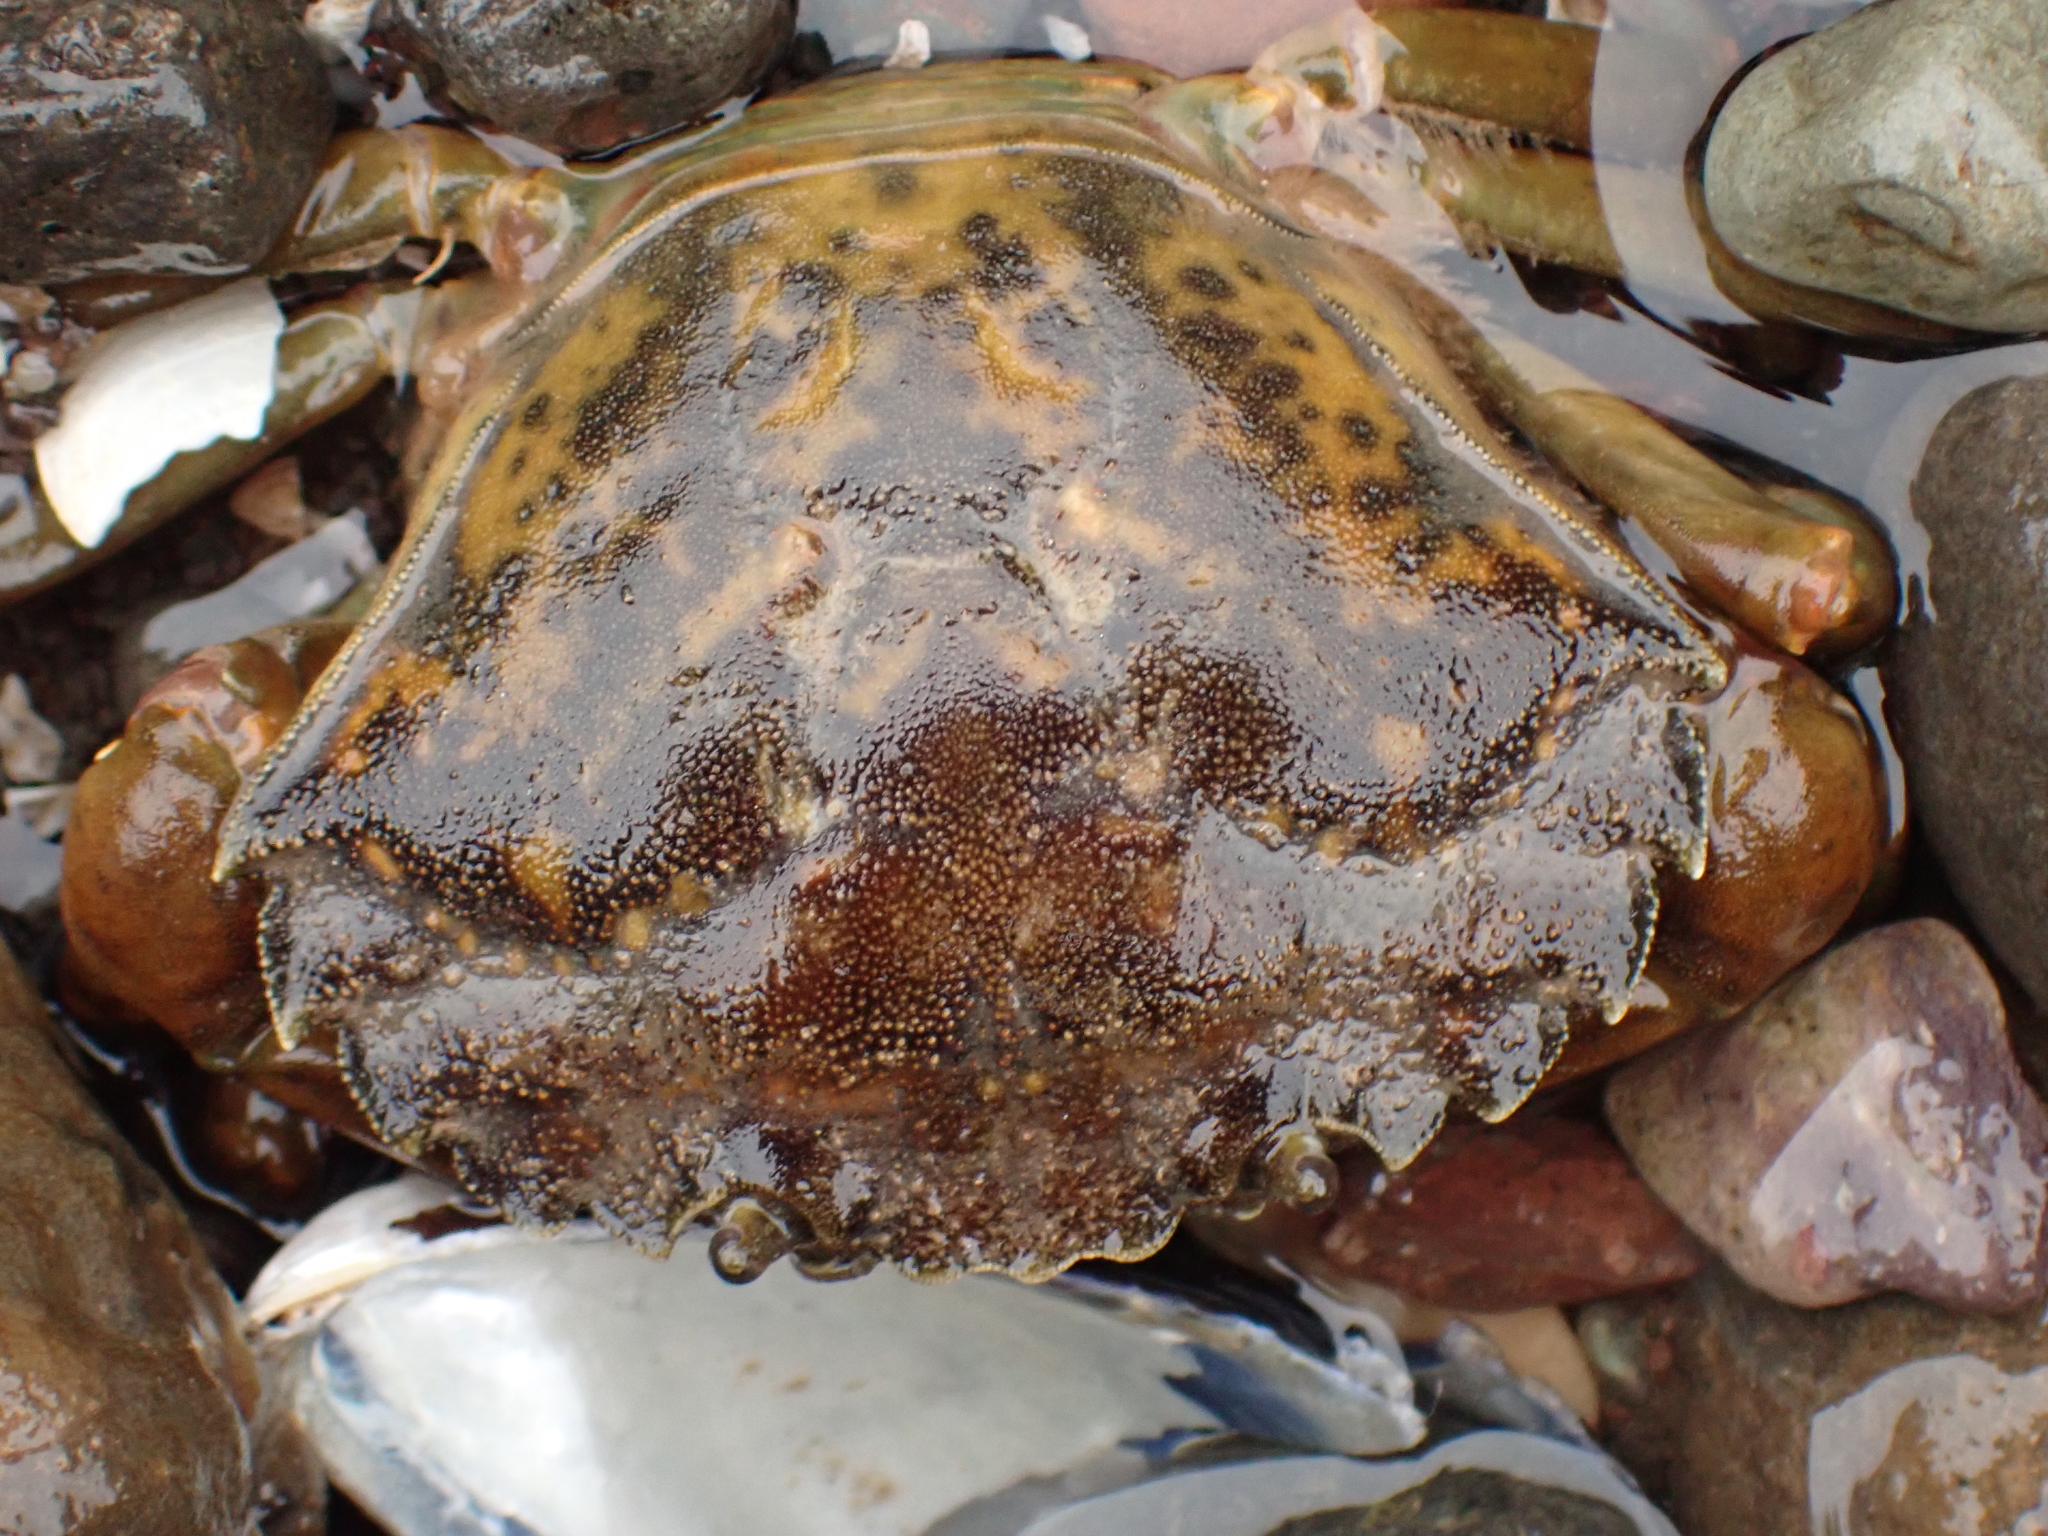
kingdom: Animalia
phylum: Arthropoda
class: Malacostraca
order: Decapoda
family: Carcinidae
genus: Carcinus
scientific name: Carcinus maenas
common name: European green crab
